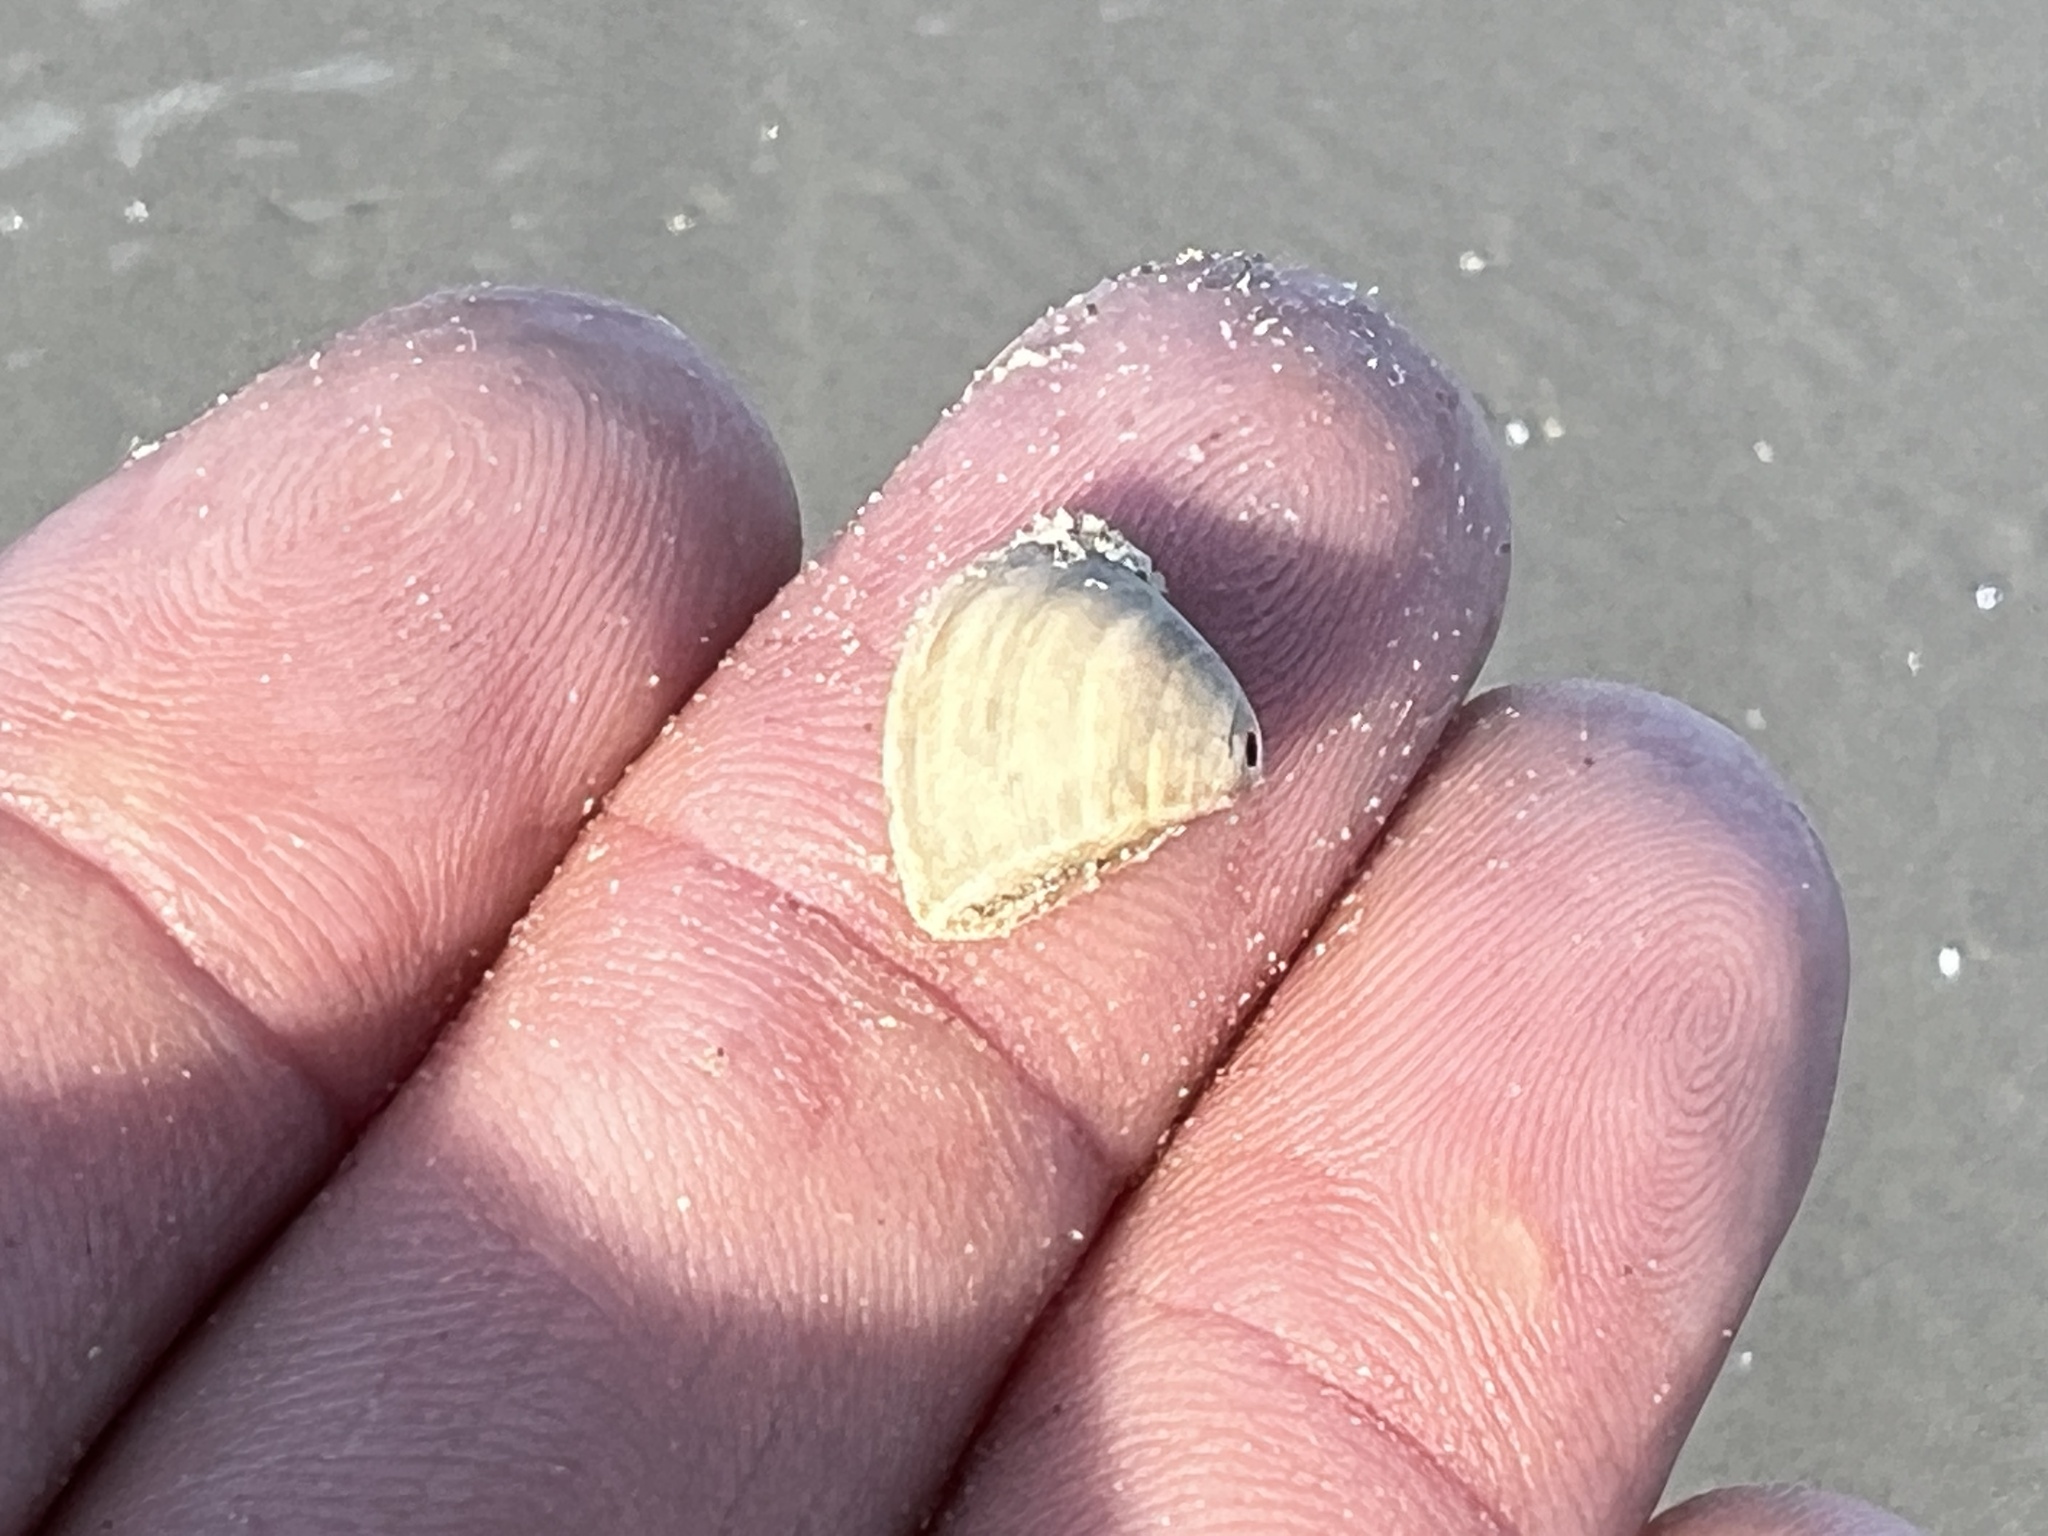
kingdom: Animalia
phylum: Mollusca
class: Bivalvia
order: Venerida
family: Mactridae
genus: Mulinia
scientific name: Mulinia lateralis
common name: Dwarf surfclam
